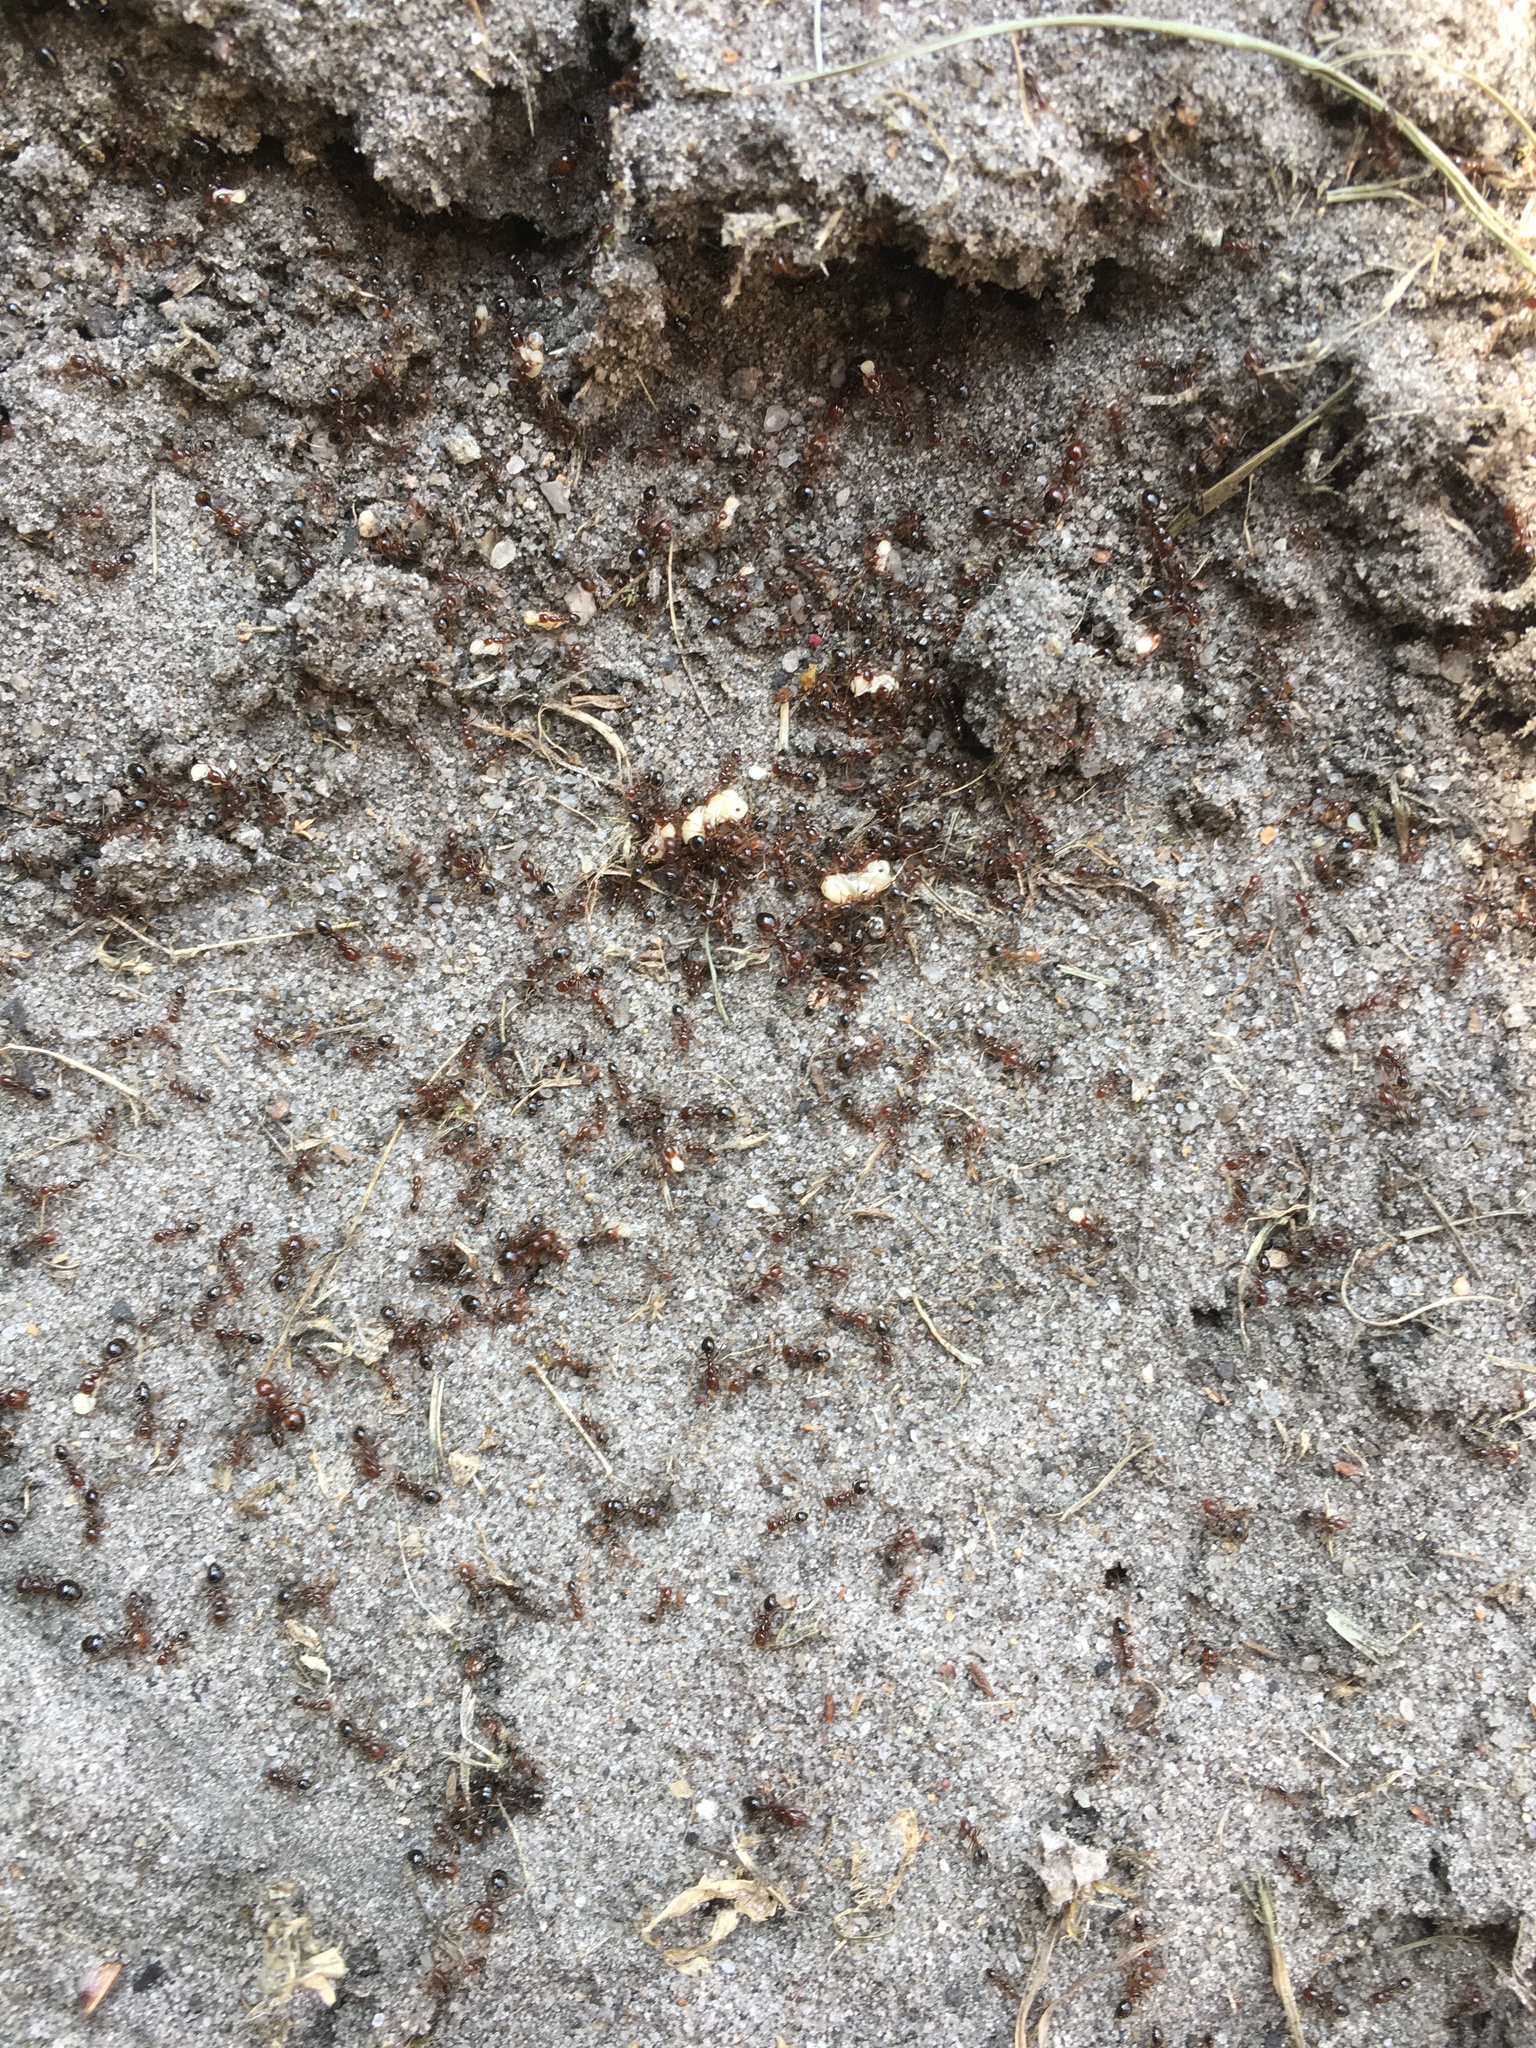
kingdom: Animalia
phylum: Arthropoda
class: Insecta
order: Hymenoptera
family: Formicidae
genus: Solenopsis
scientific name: Solenopsis invicta
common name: Red imported fire ant
